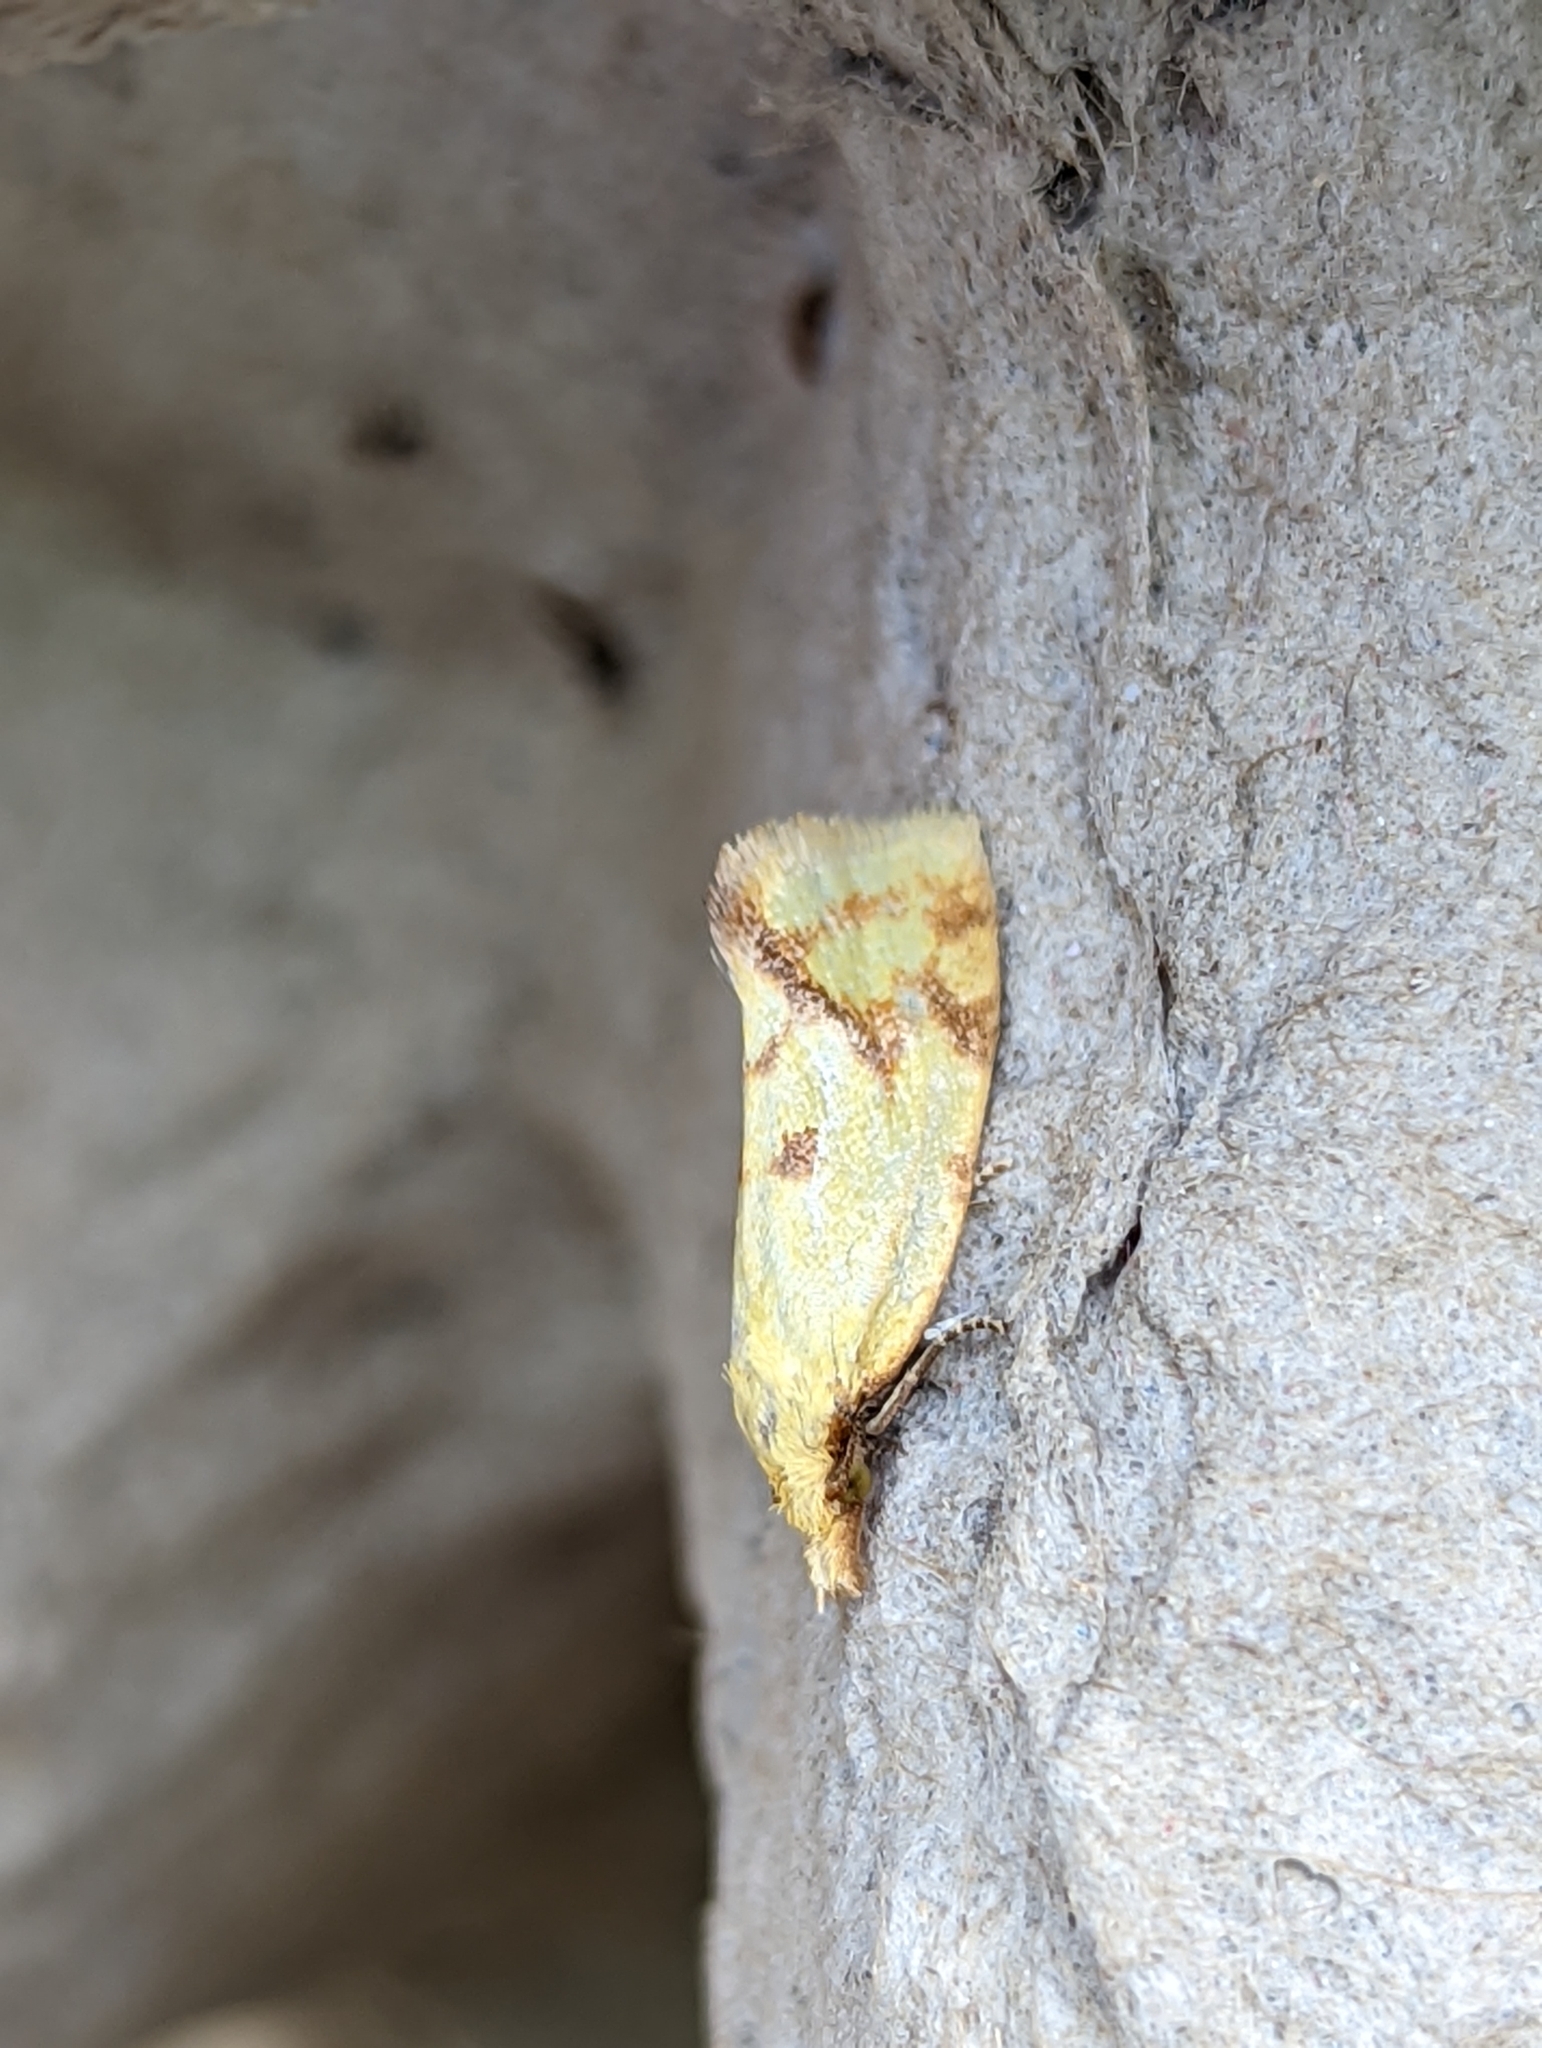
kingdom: Animalia
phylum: Arthropoda
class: Insecta
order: Lepidoptera
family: Tortricidae
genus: Agapeta
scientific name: Agapeta hamana
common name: Common yellow conch
